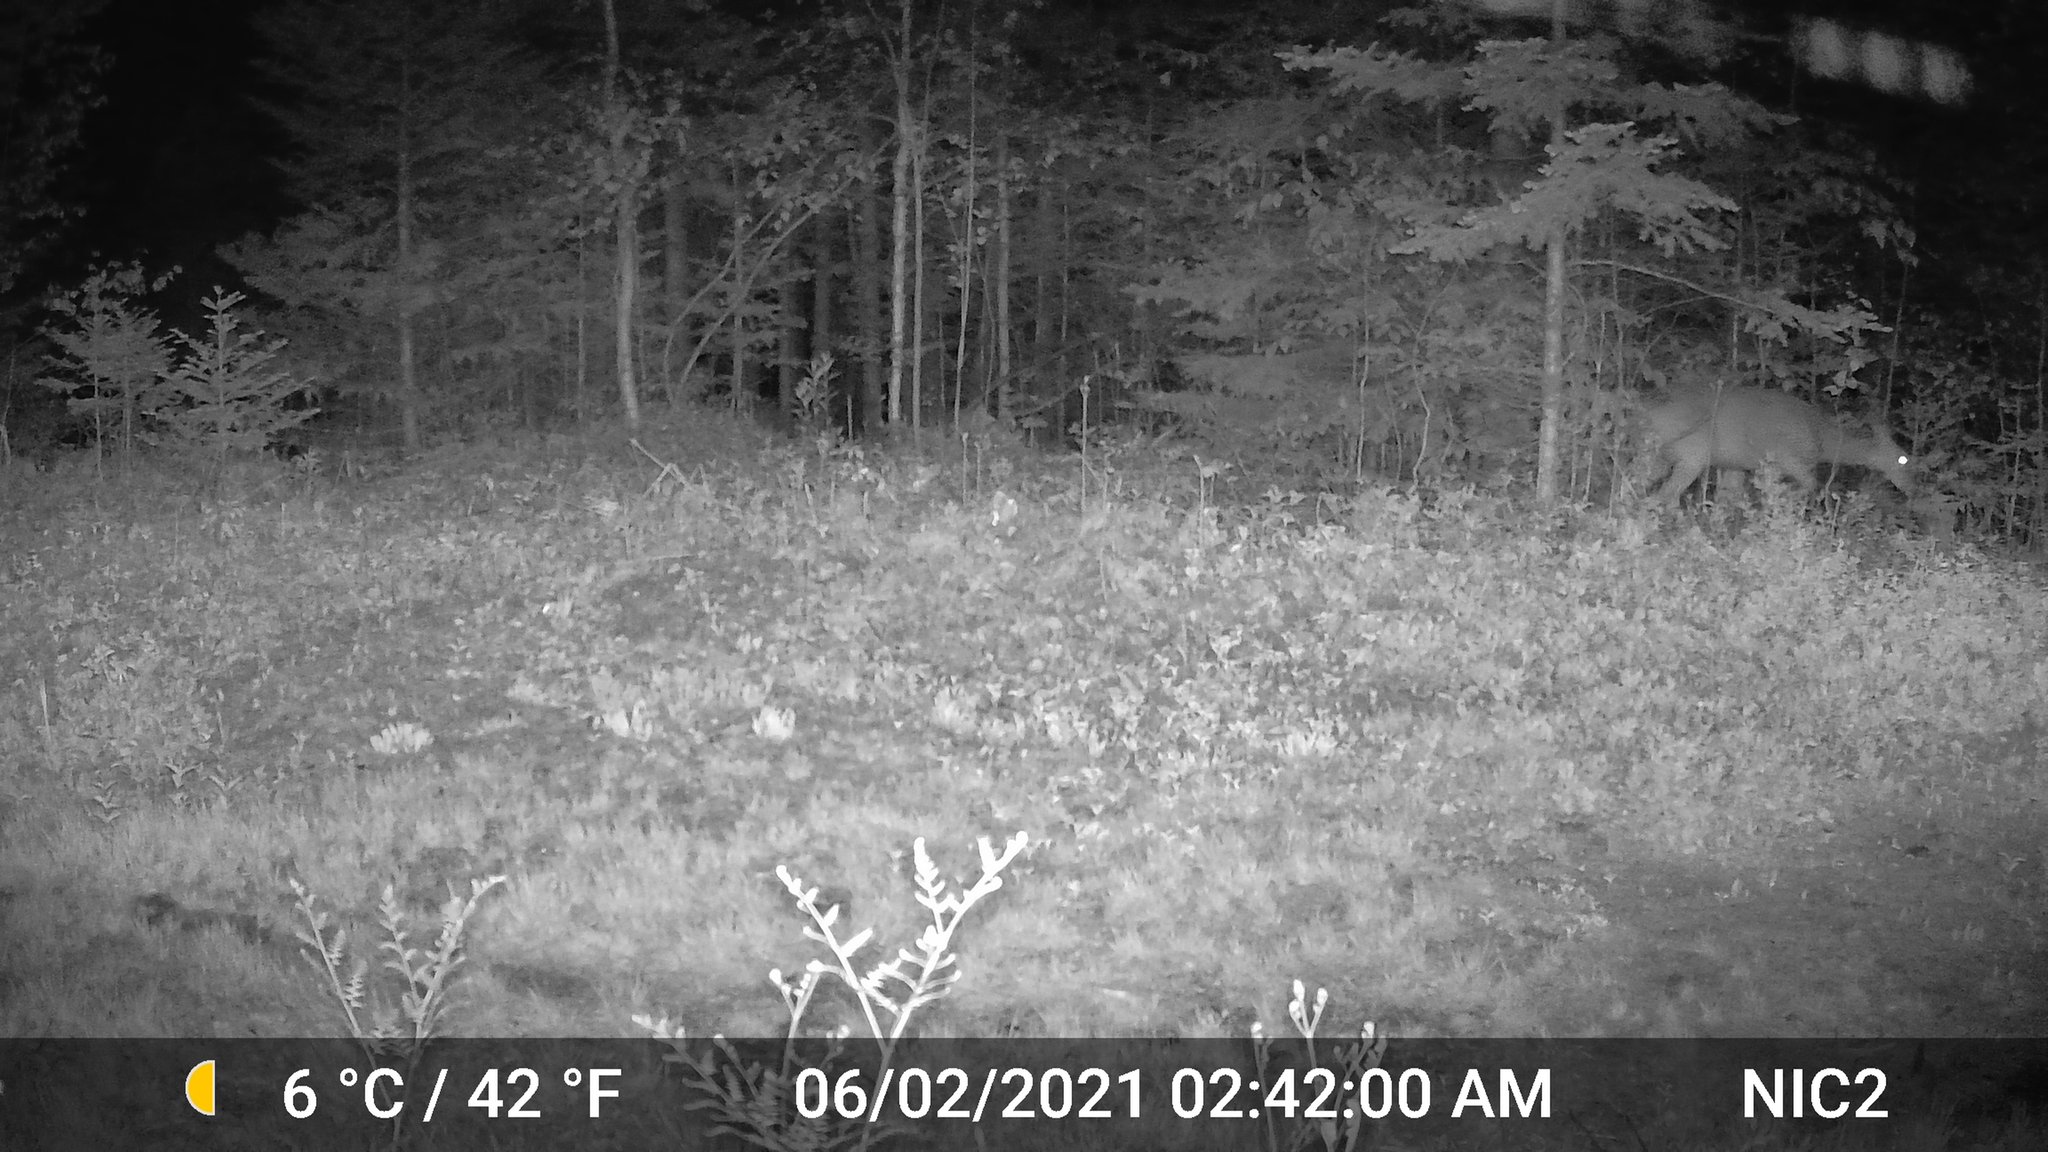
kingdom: Animalia
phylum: Chordata
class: Mammalia
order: Artiodactyla
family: Cervidae
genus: Odocoileus
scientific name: Odocoileus virginianus
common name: White-tailed deer
